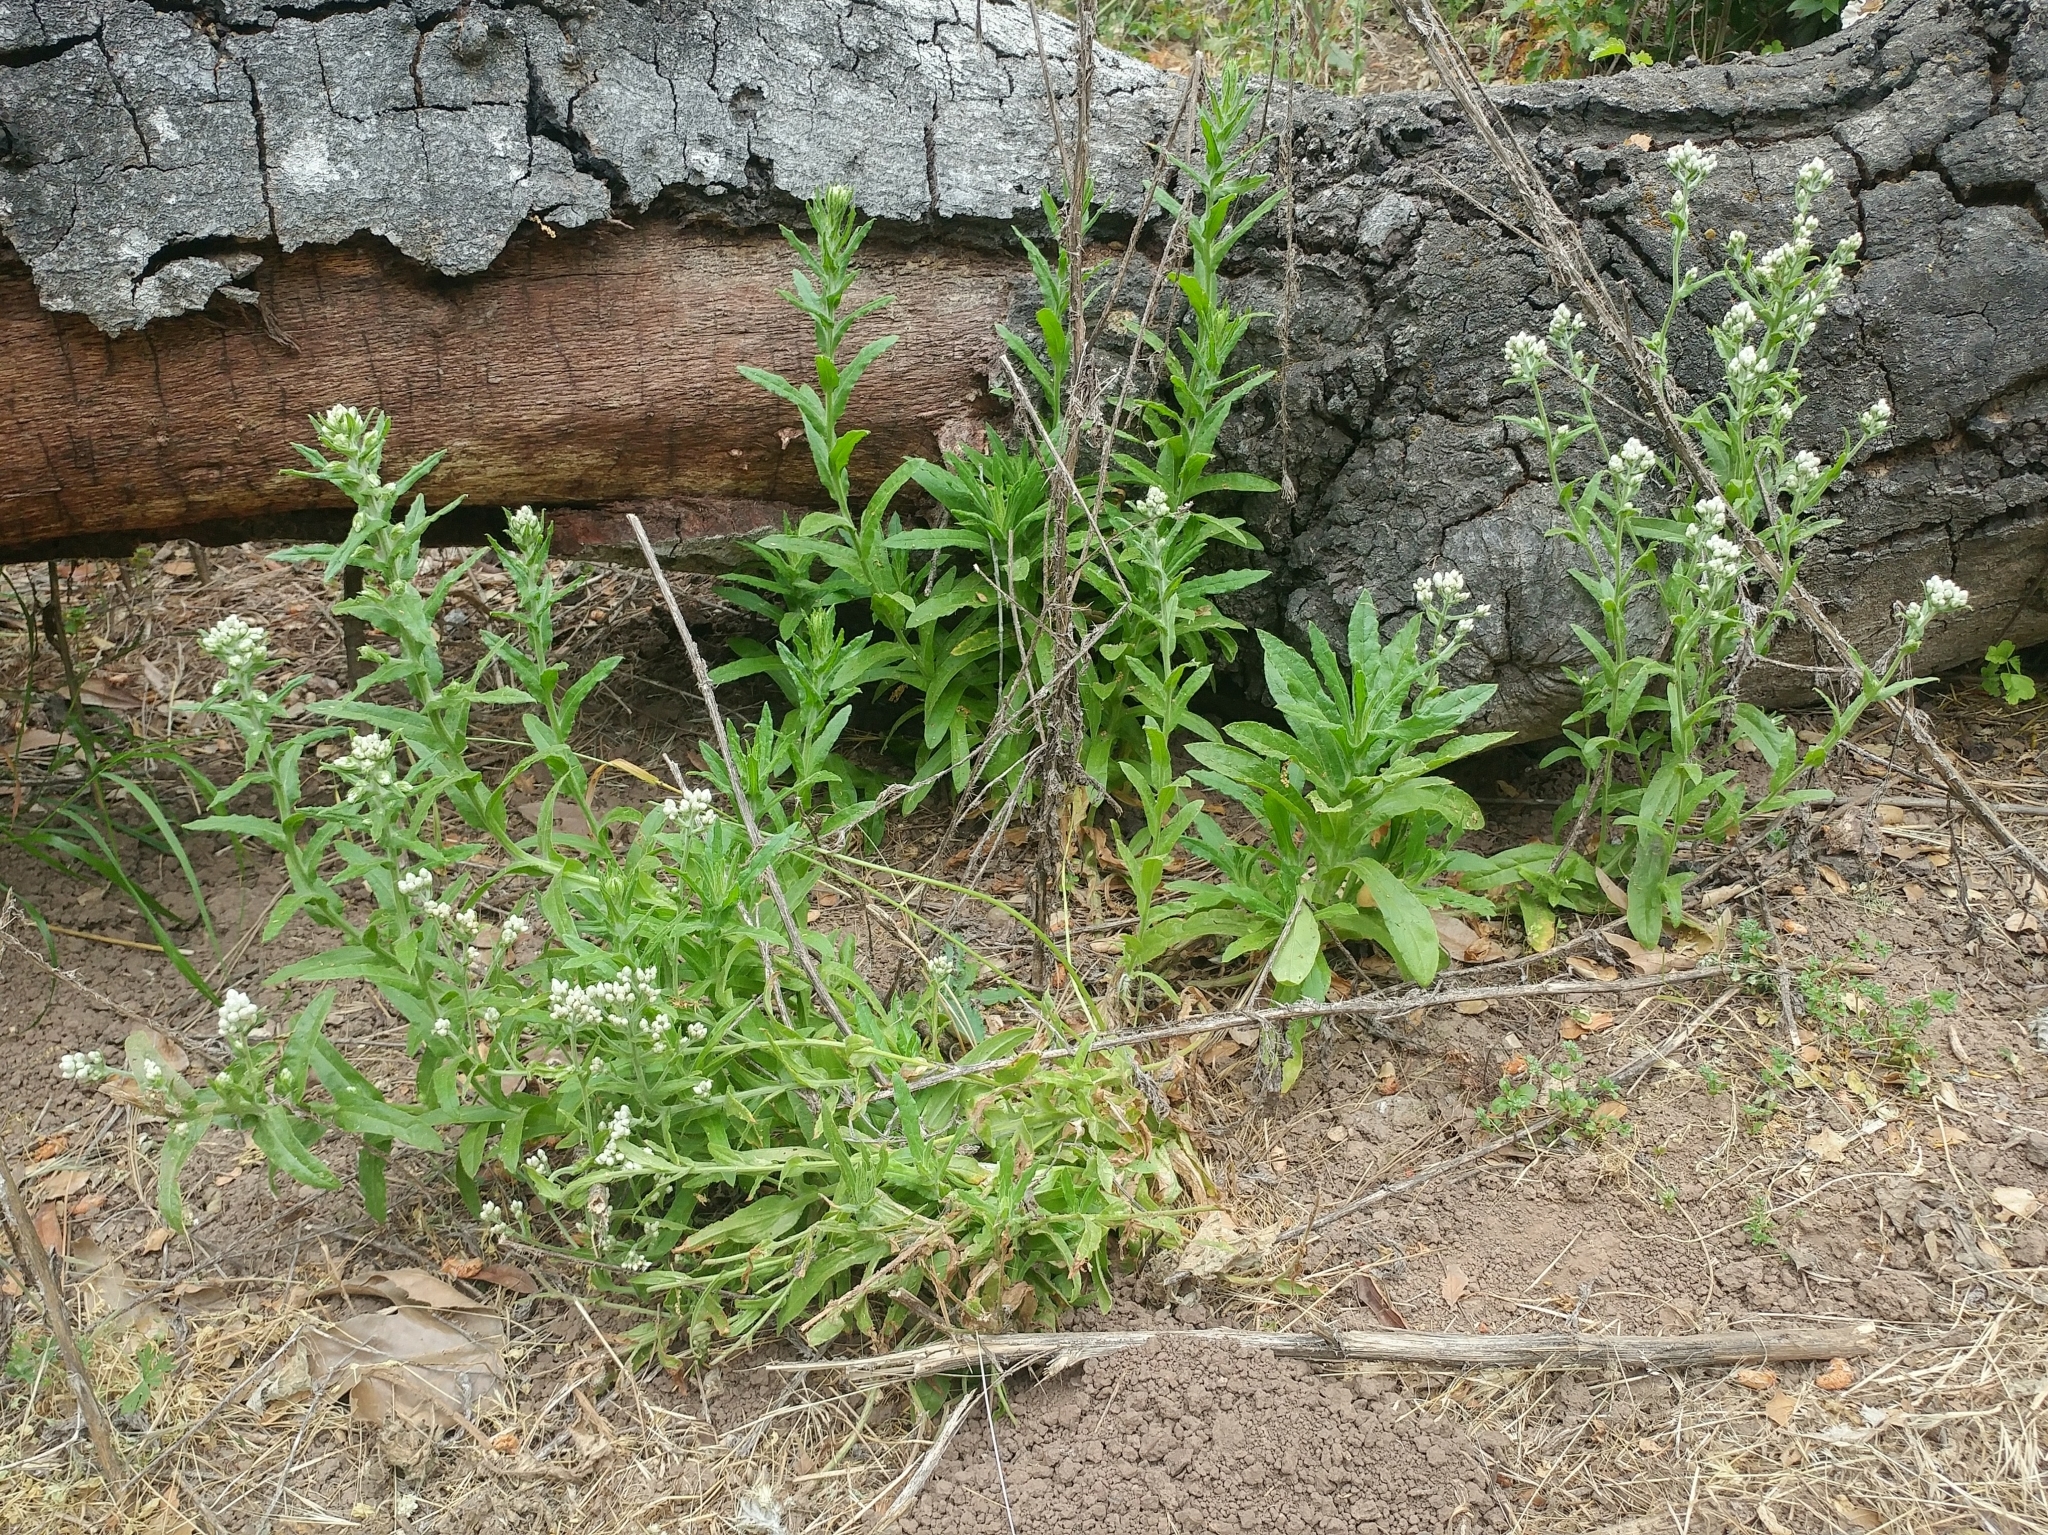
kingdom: Plantae
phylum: Tracheophyta
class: Magnoliopsida
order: Asterales
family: Asteraceae
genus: Pseudognaphalium
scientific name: Pseudognaphalium californicum
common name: California rabbit-tobacco
